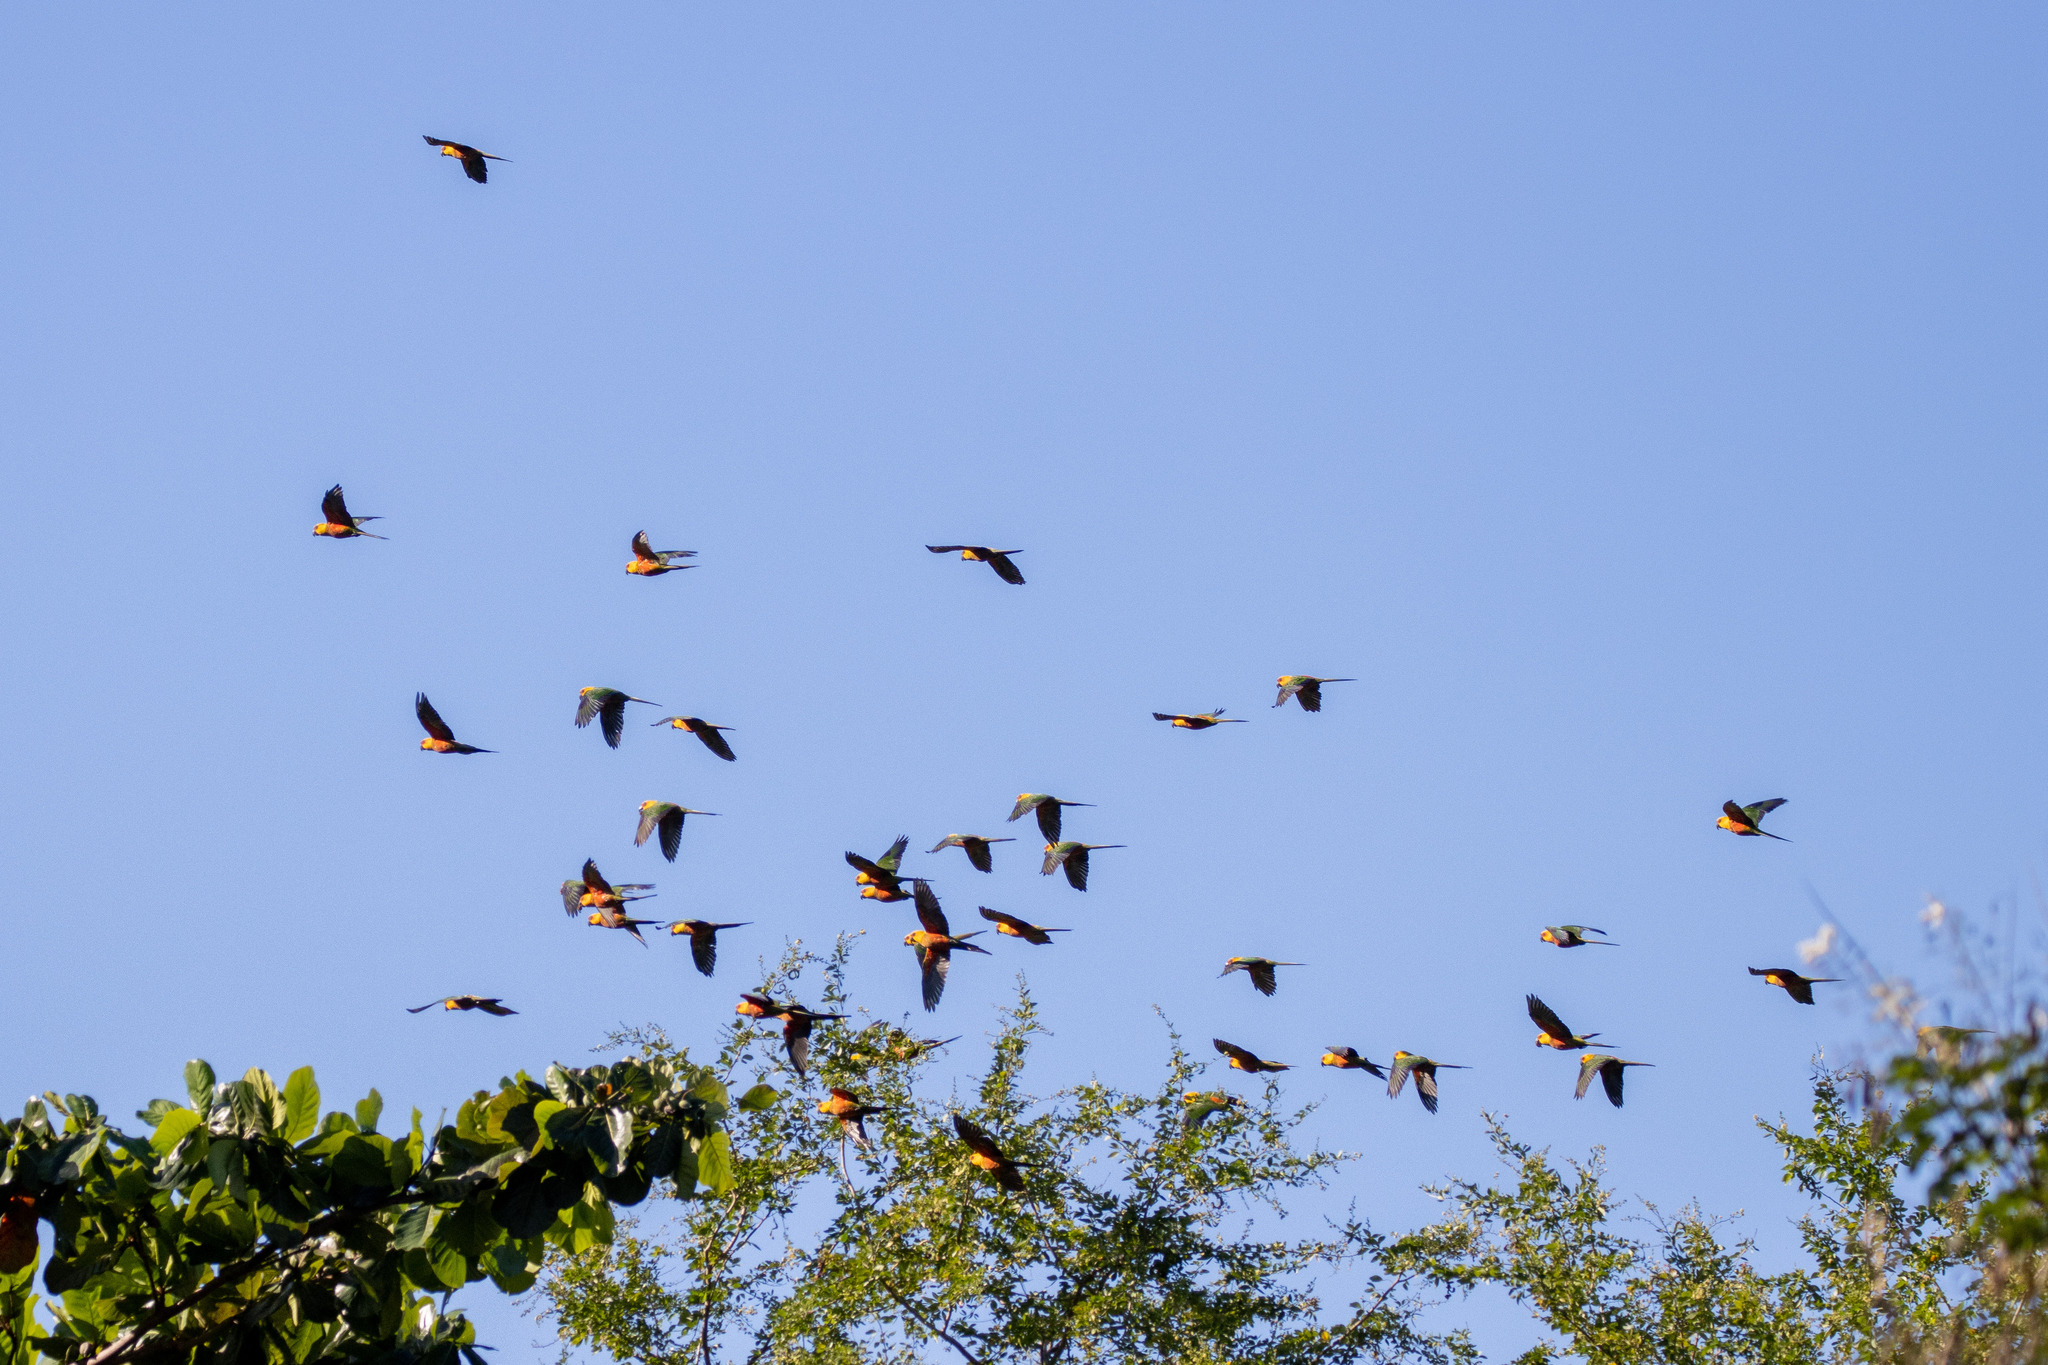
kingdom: Animalia
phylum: Chordata
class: Aves
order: Psittaciformes
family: Psittacidae
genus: Aratinga
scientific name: Aratinga jandaya
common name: Jandaya parakeet
